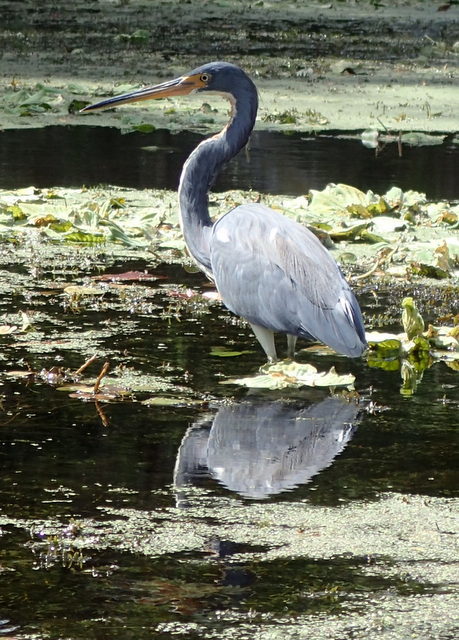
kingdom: Animalia
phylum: Chordata
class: Aves
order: Pelecaniformes
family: Ardeidae
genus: Egretta
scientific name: Egretta tricolor
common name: Tricolored heron
